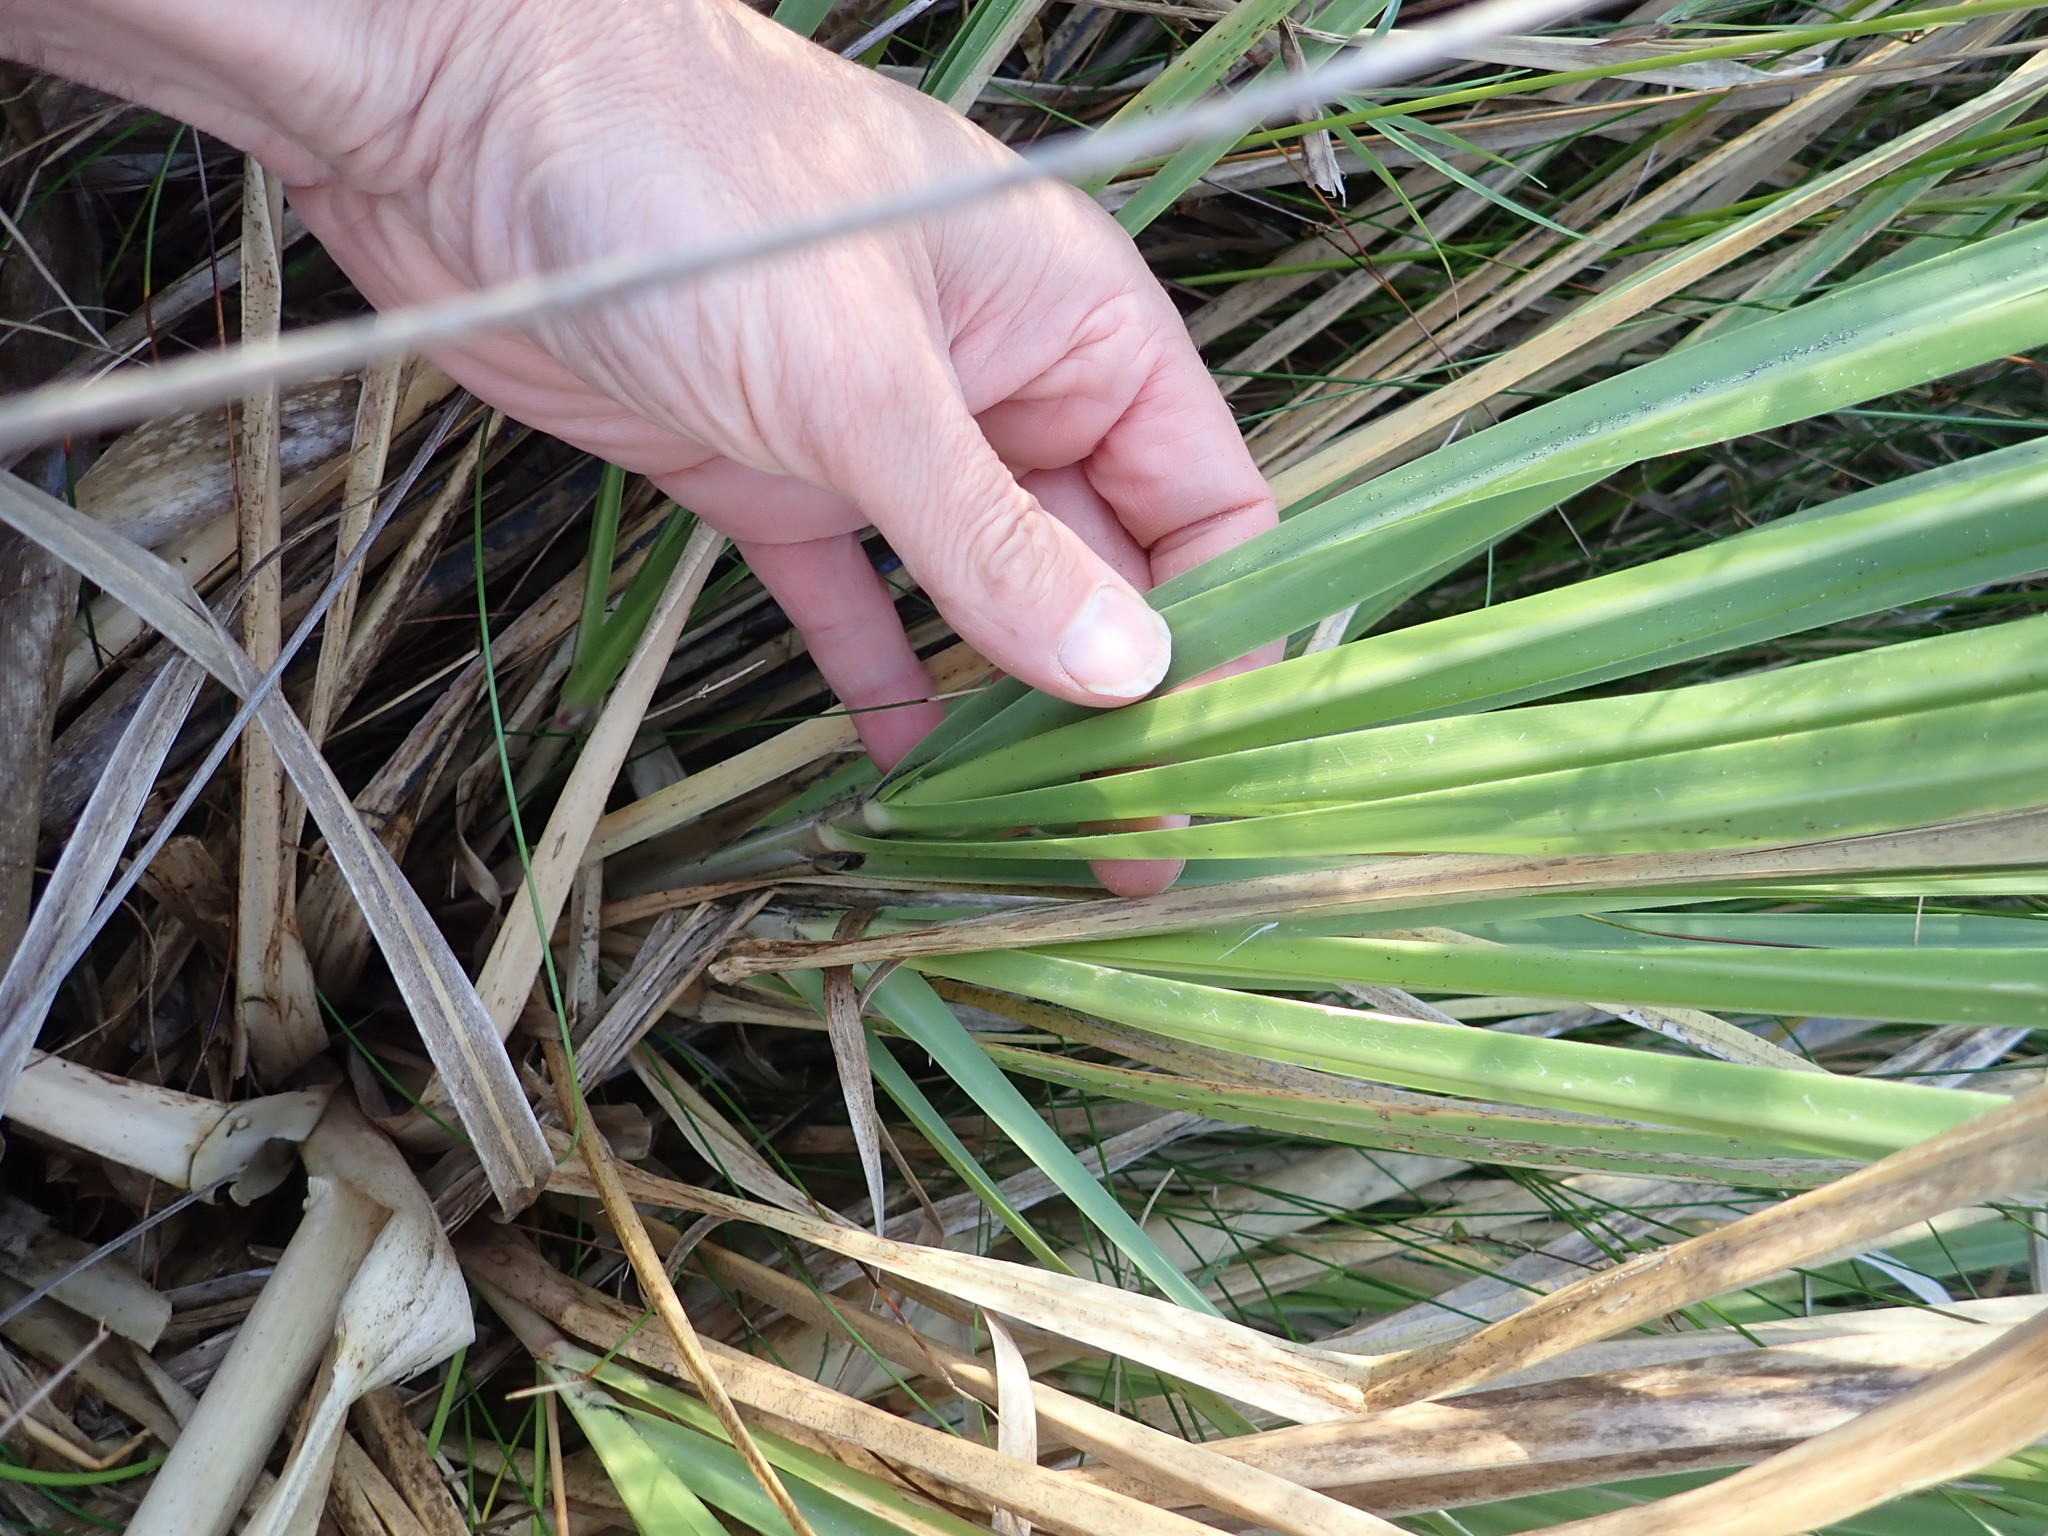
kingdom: Plantae
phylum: Tracheophyta
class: Liliopsida
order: Poales
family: Poaceae
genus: Cortaderia
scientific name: Cortaderia selloana
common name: Uruguayan pampas grass
